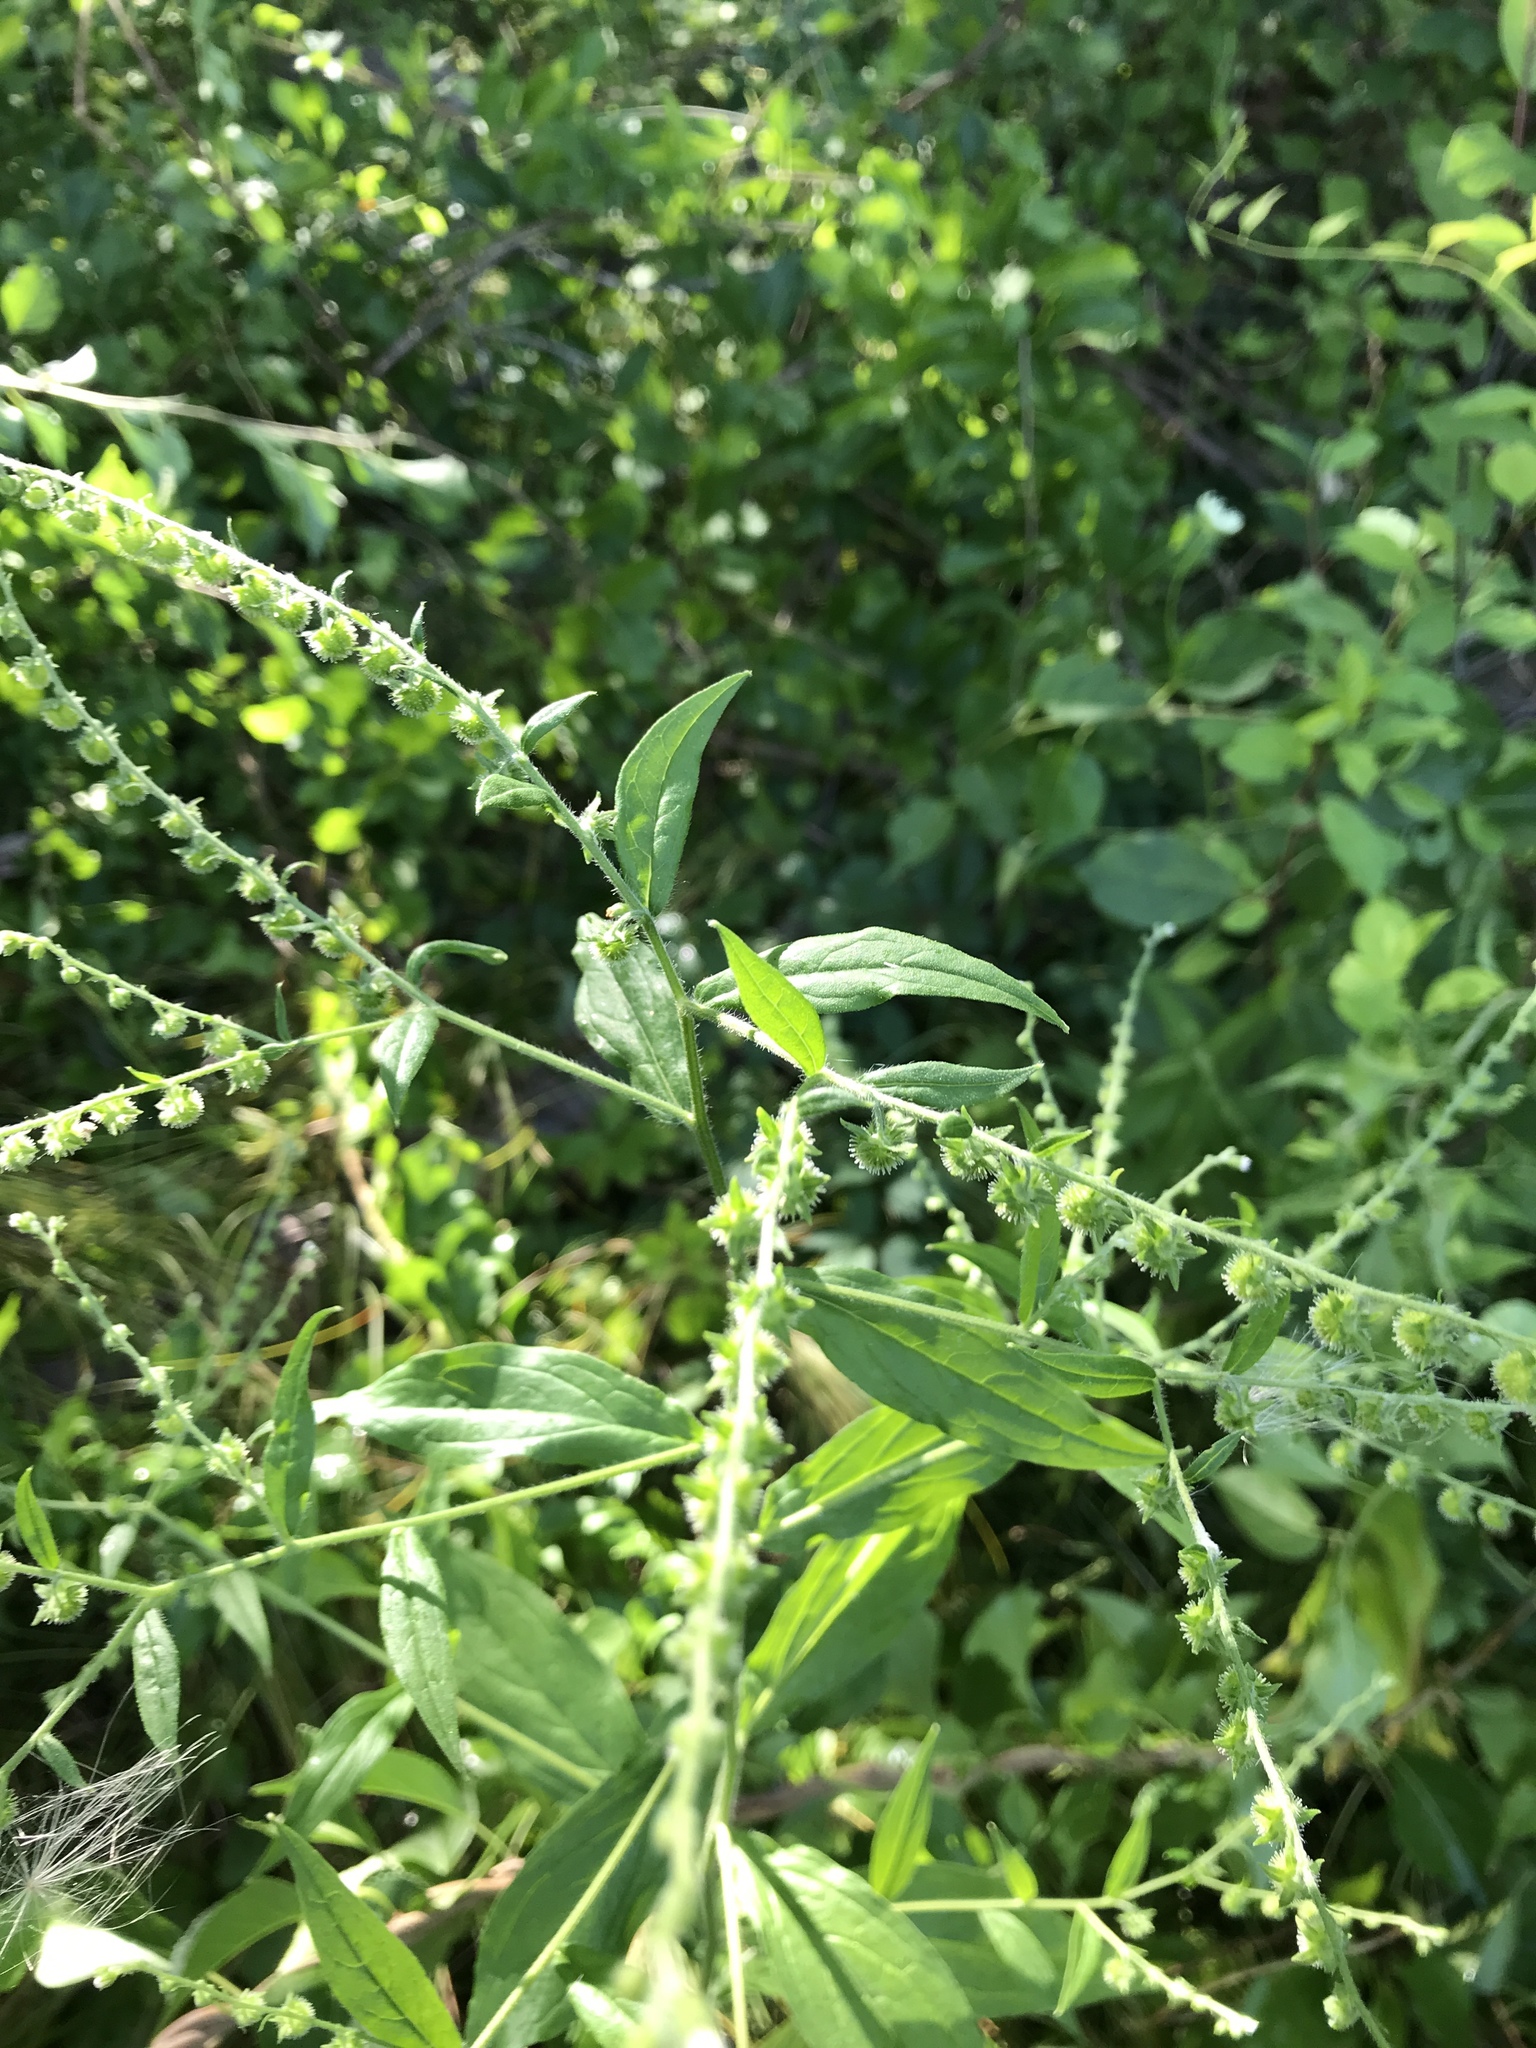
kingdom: Plantae
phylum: Tracheophyta
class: Magnoliopsida
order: Boraginales
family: Boraginaceae
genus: Hackelia
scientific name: Hackelia virginiana
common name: Beggar's-lice
